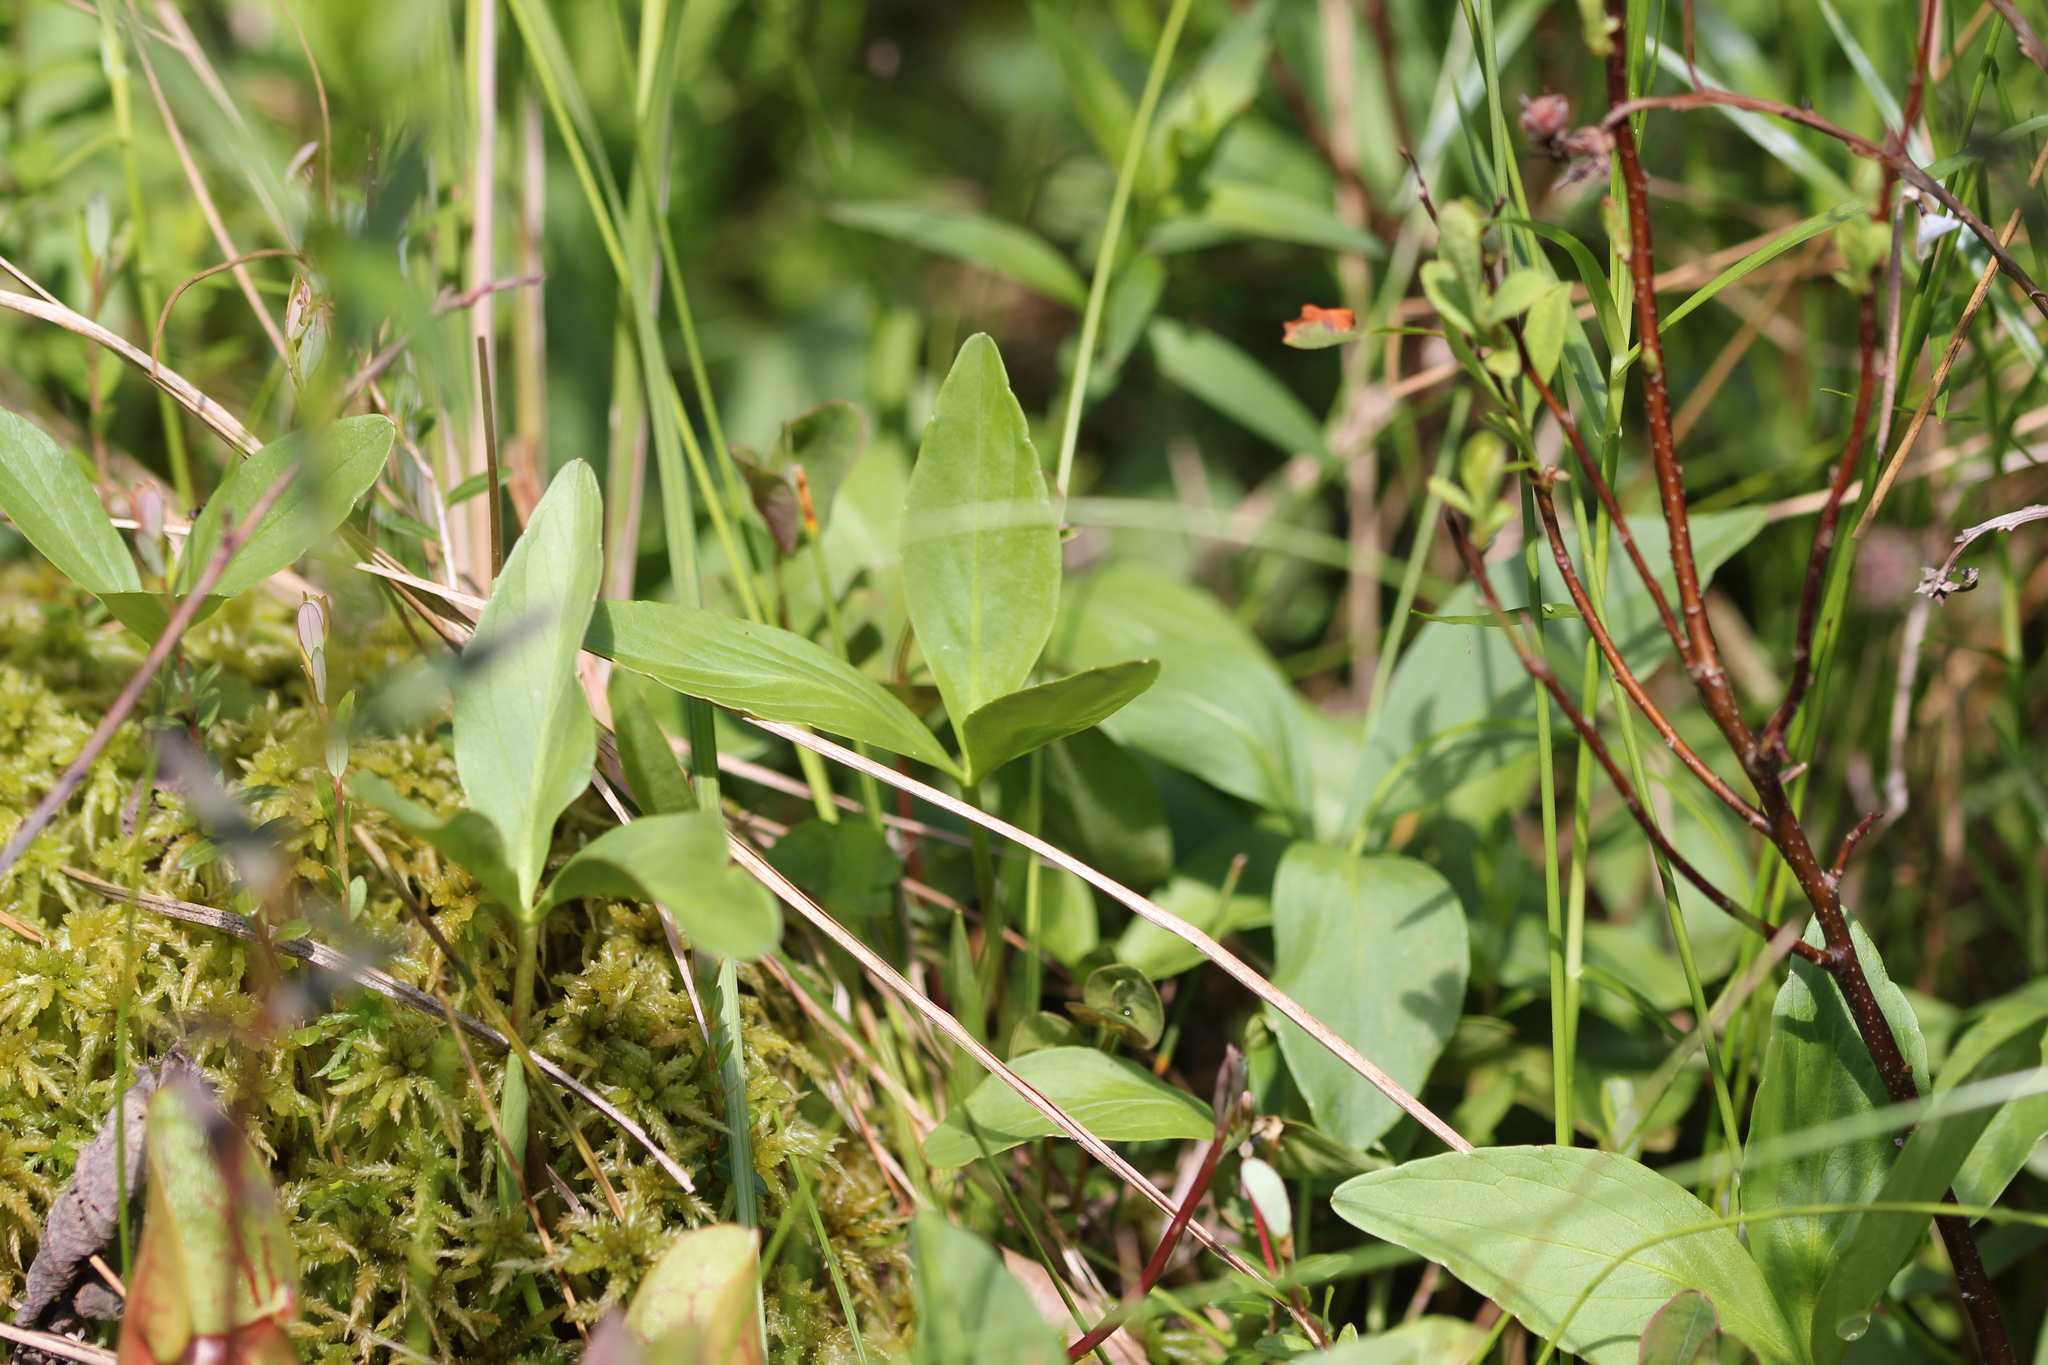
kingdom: Plantae
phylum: Tracheophyta
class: Magnoliopsida
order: Asterales
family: Menyanthaceae
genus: Menyanthes
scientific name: Menyanthes trifoliata
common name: Bogbean
